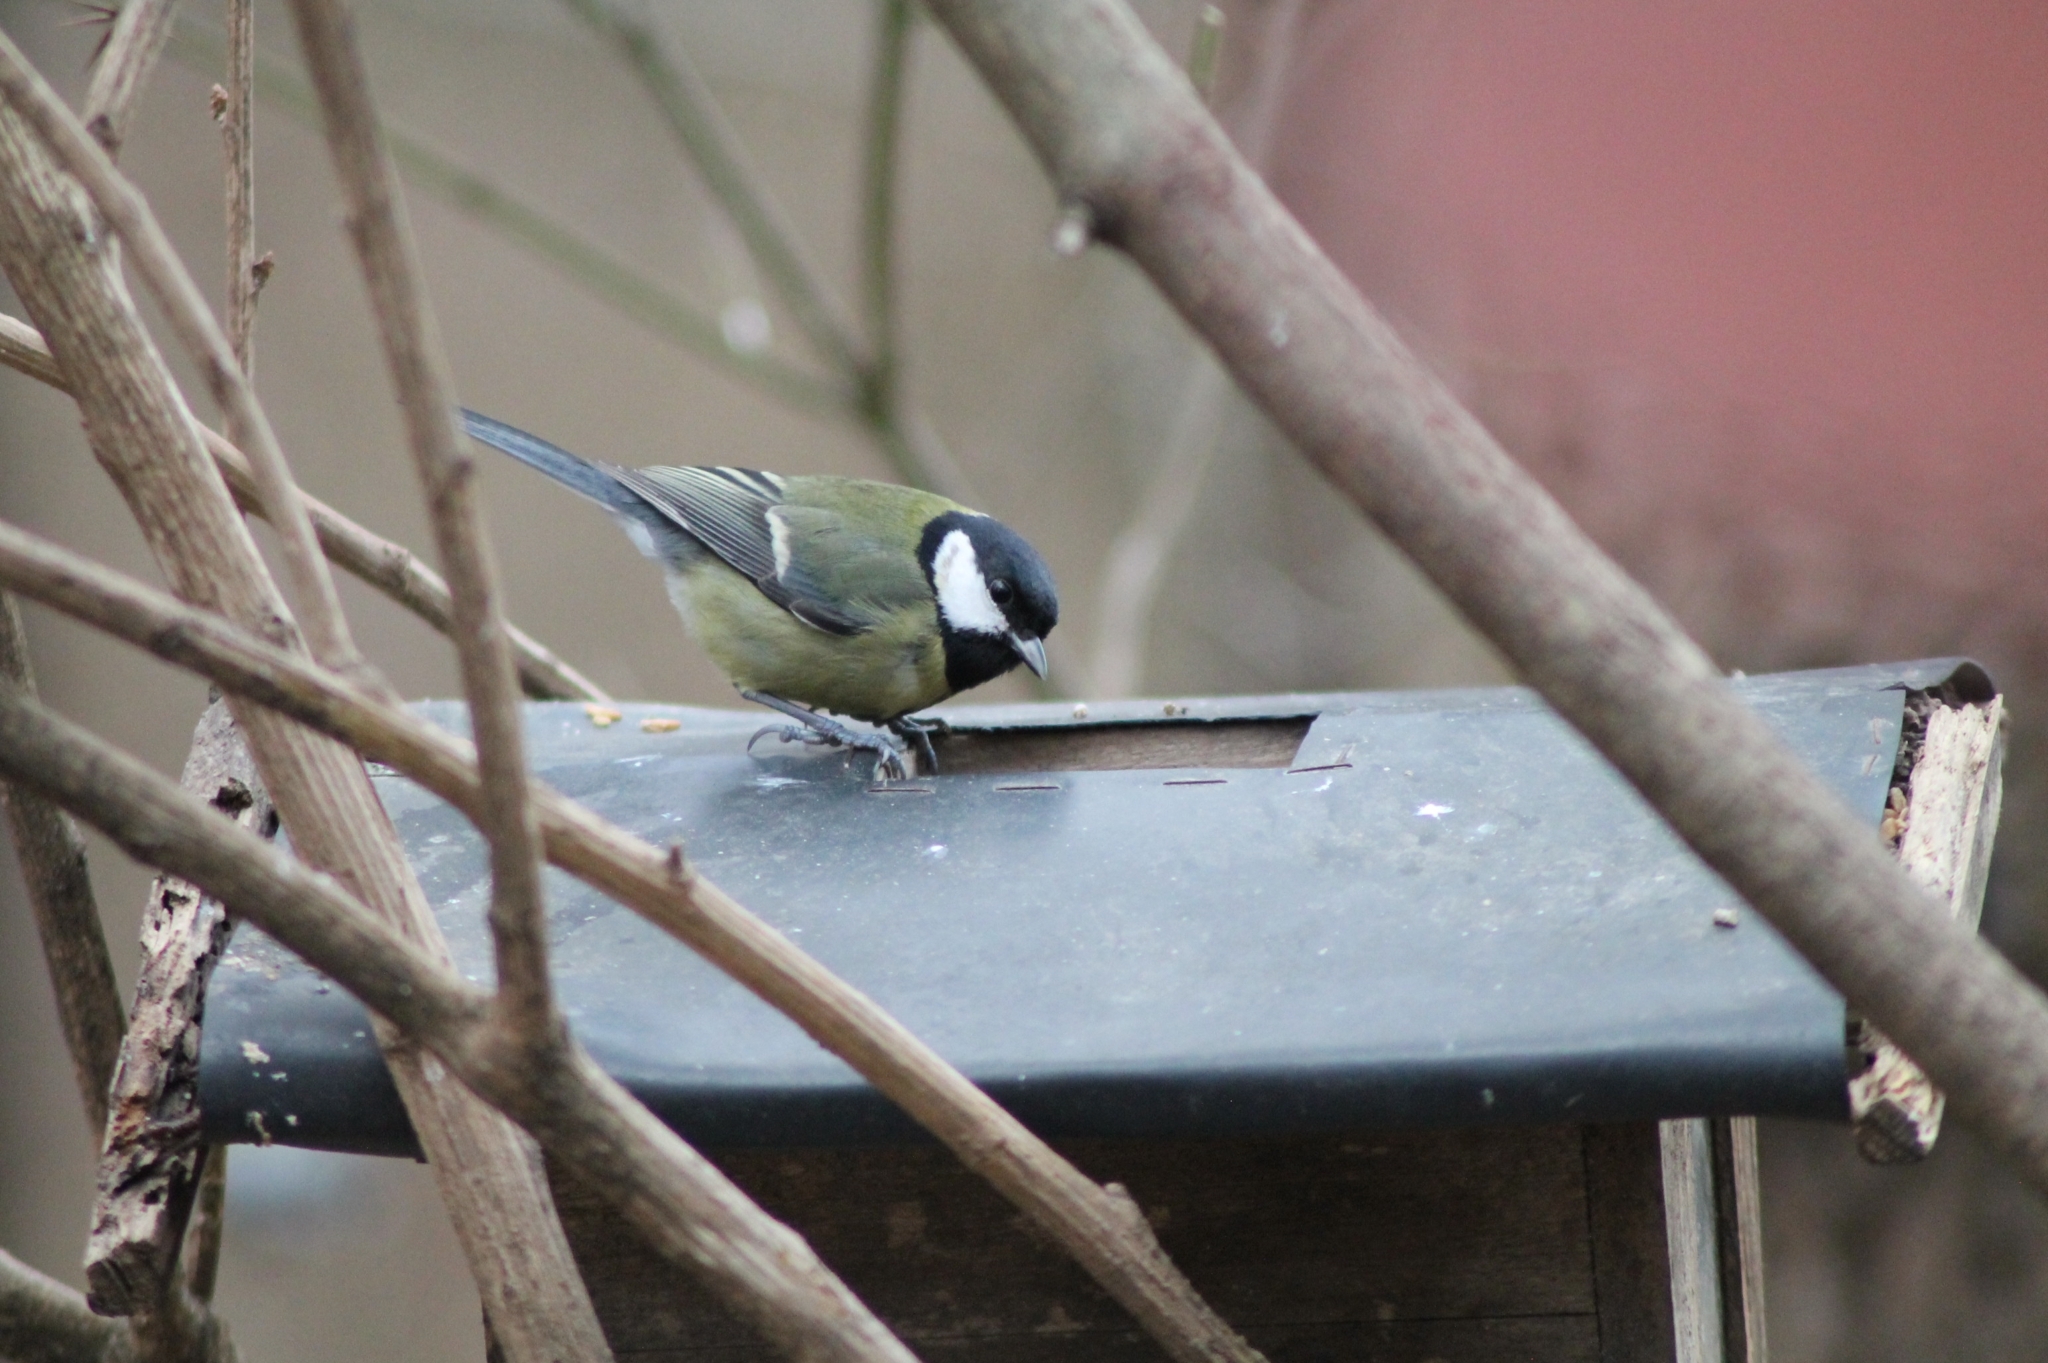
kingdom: Animalia
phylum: Chordata
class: Aves
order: Passeriformes
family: Paridae
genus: Parus
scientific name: Parus major
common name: Great tit
